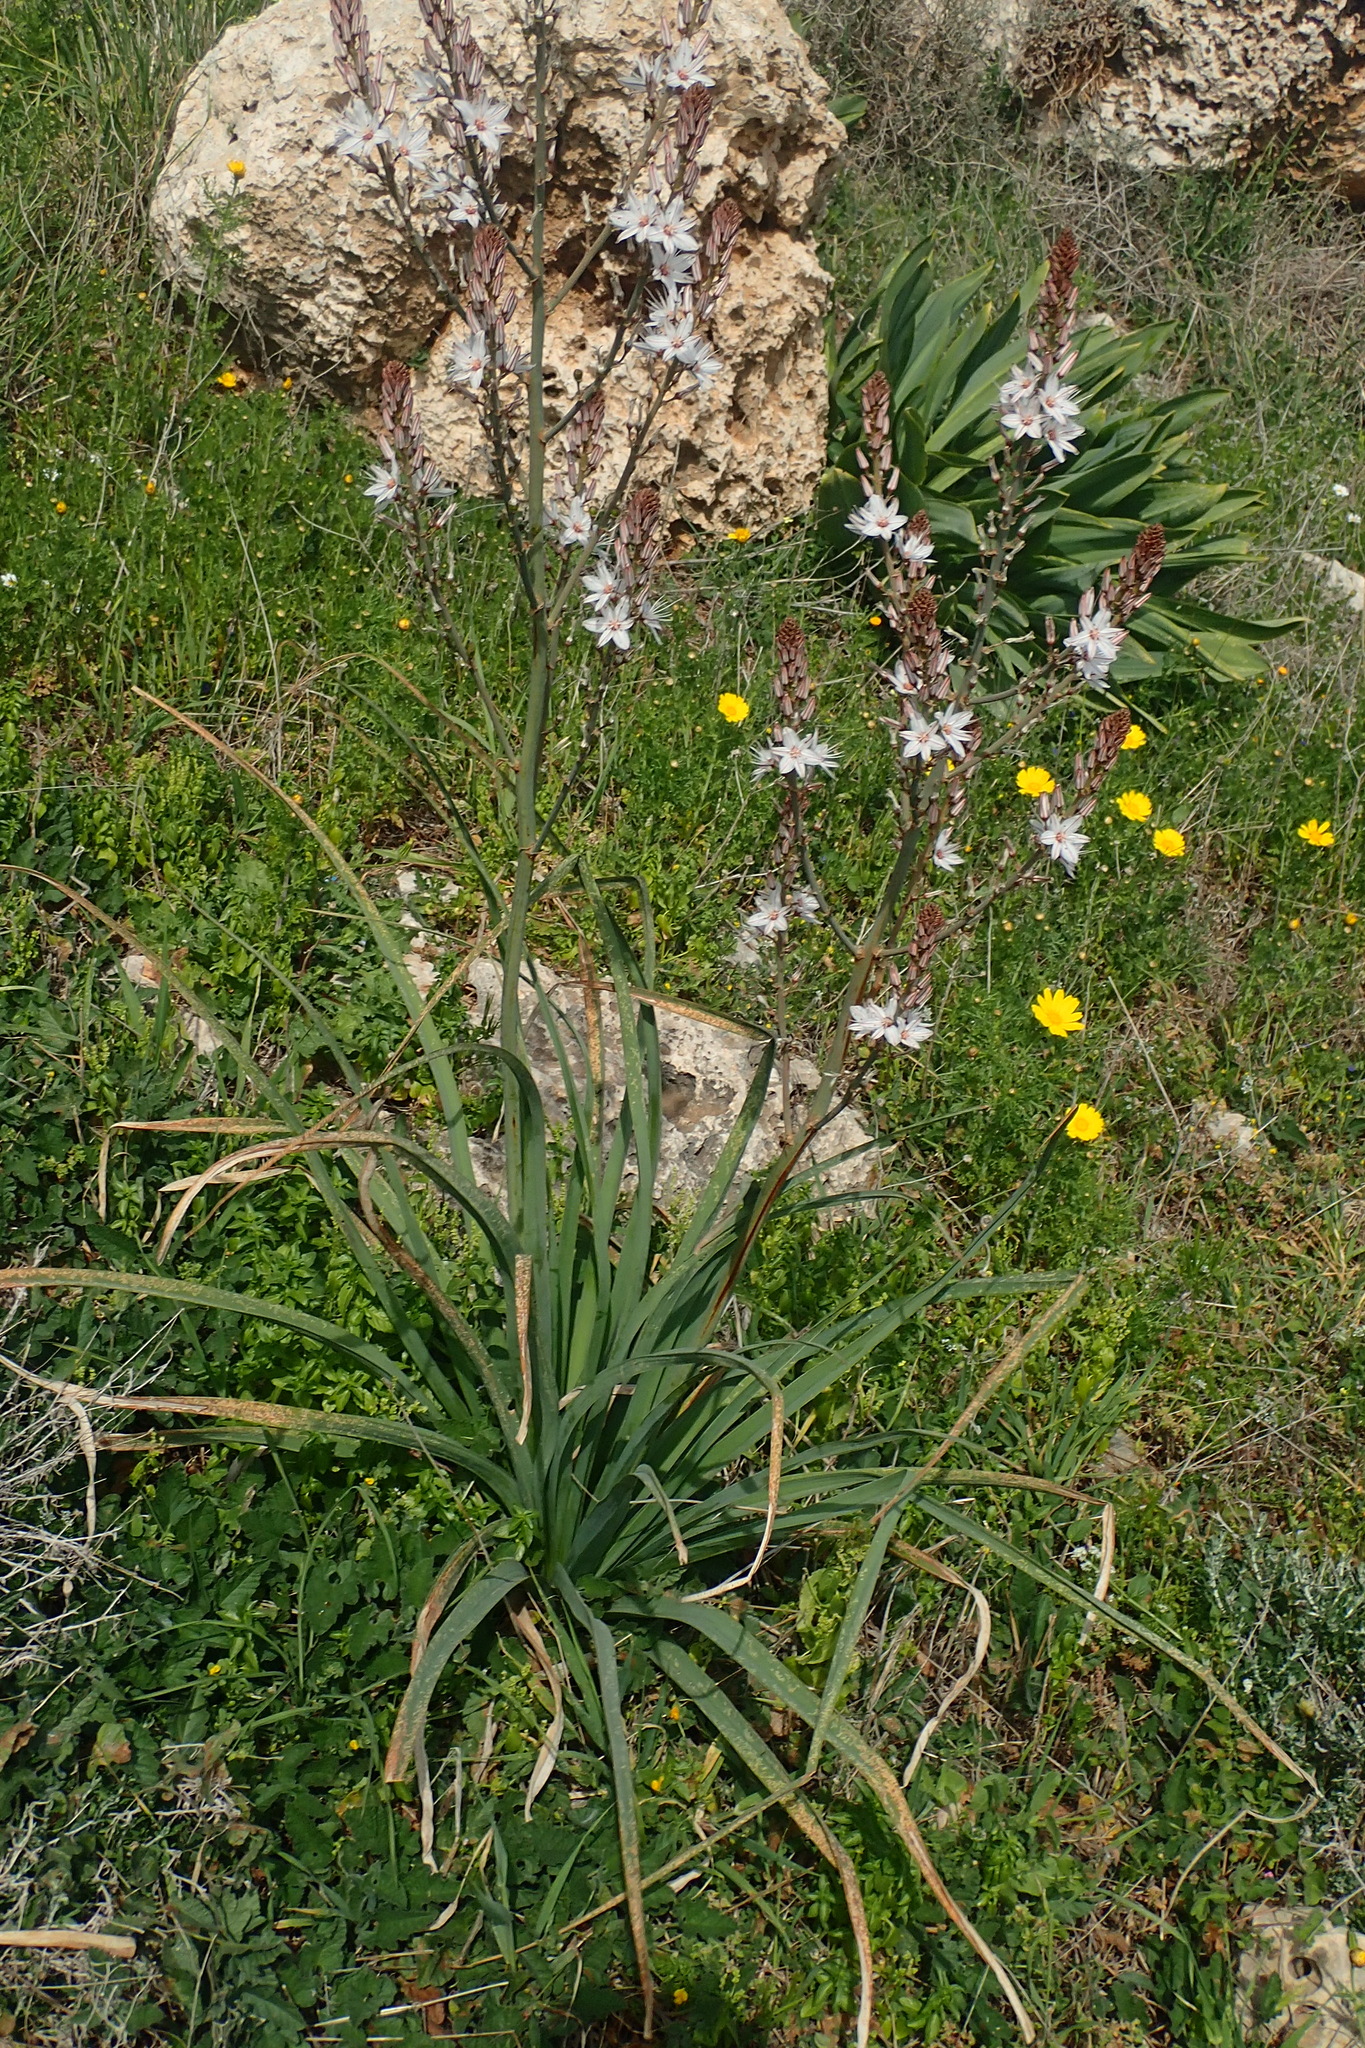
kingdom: Plantae
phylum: Tracheophyta
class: Liliopsida
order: Asparagales
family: Asphodelaceae
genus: Asphodelus
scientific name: Asphodelus ramosus
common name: Silverrod
